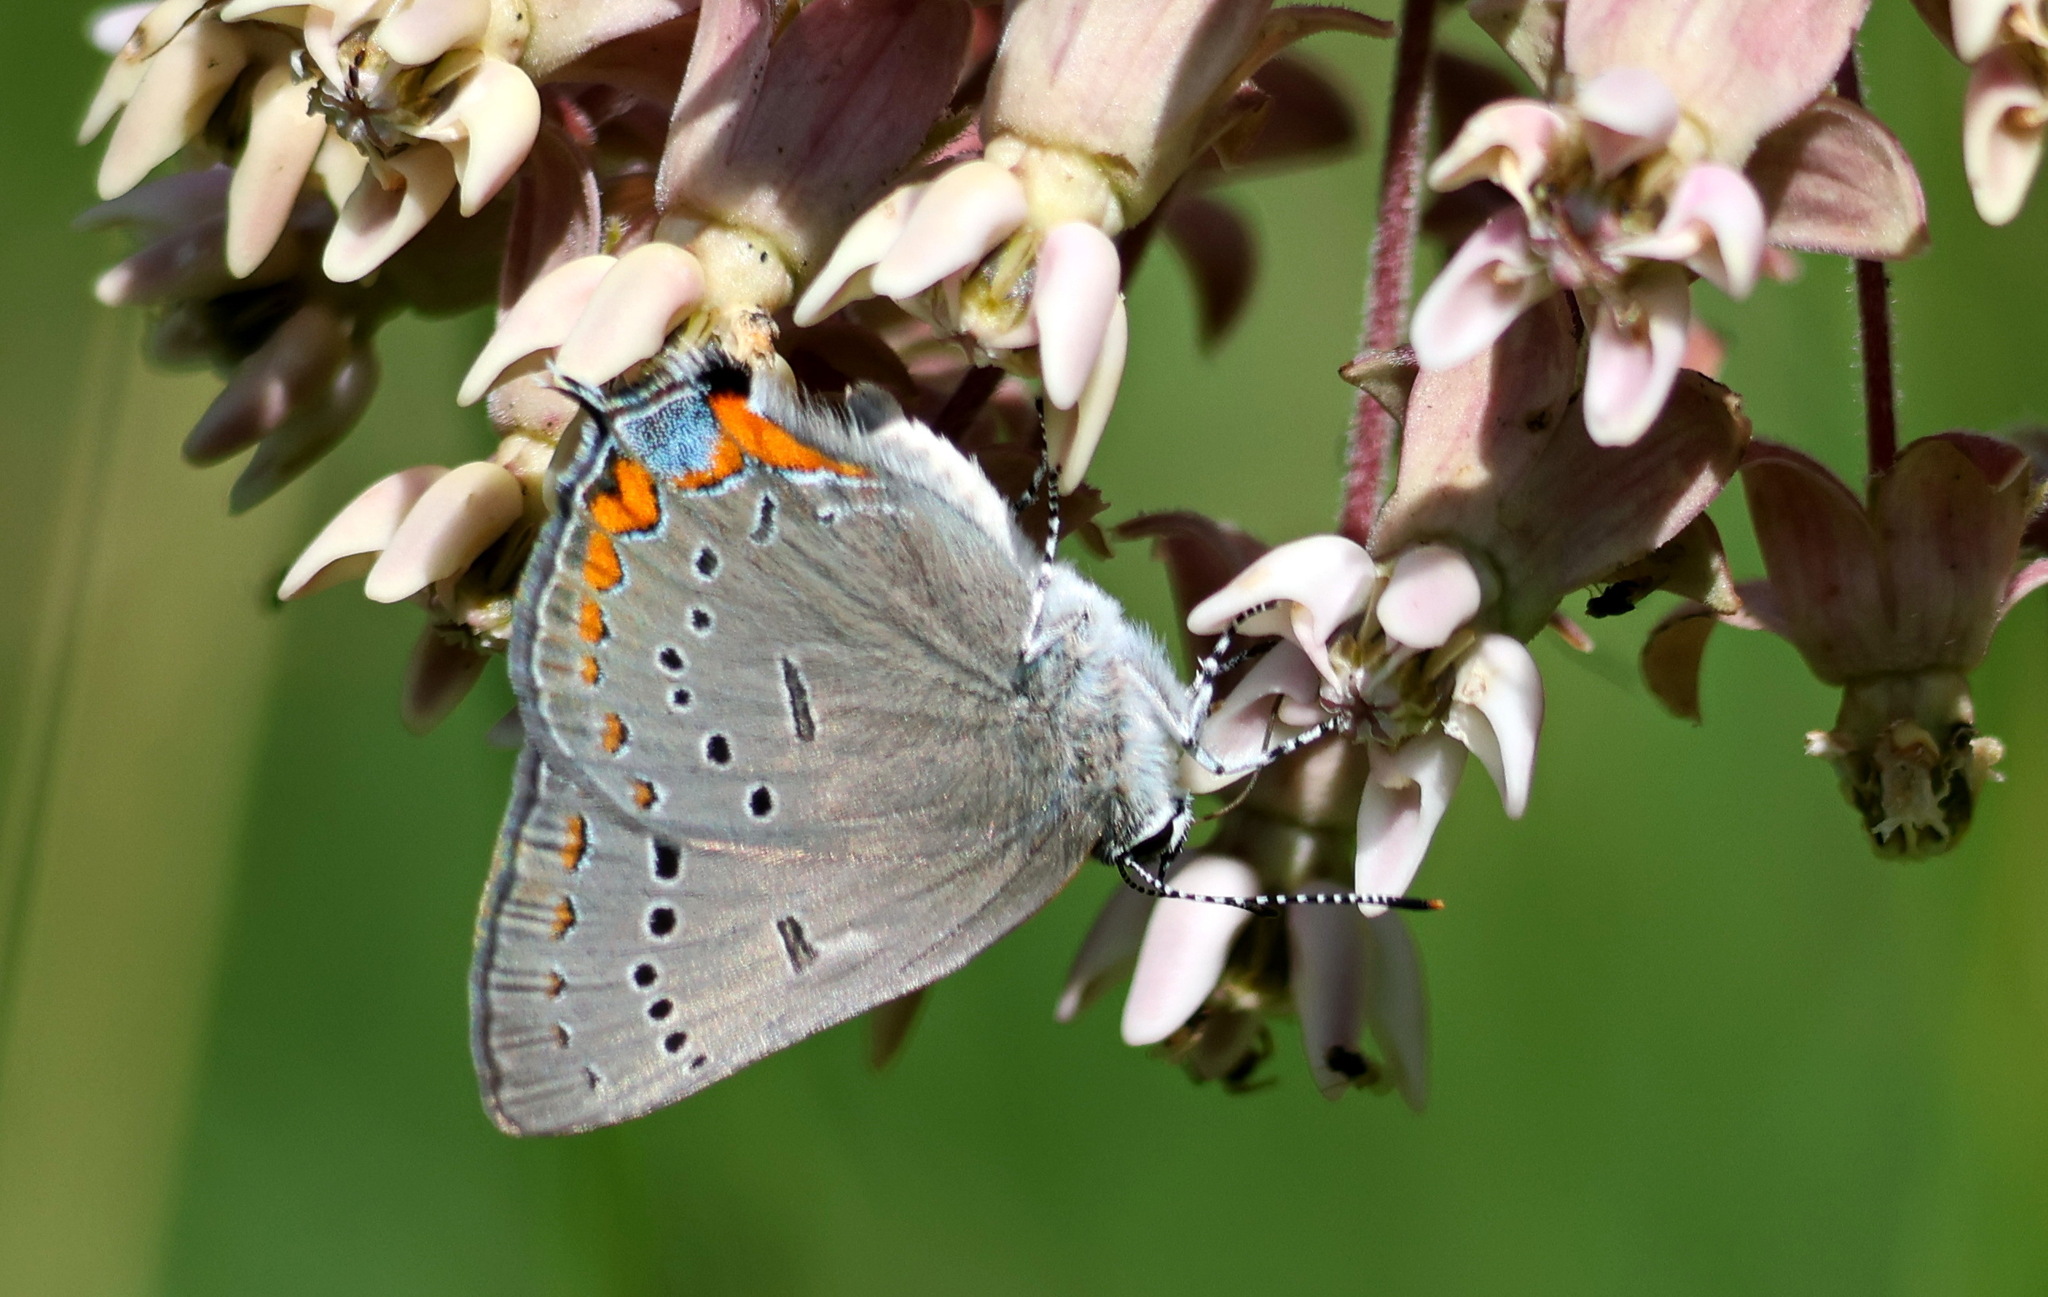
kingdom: Animalia
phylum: Arthropoda
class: Insecta
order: Lepidoptera
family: Lycaenidae
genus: Strymon
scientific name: Strymon acadica
